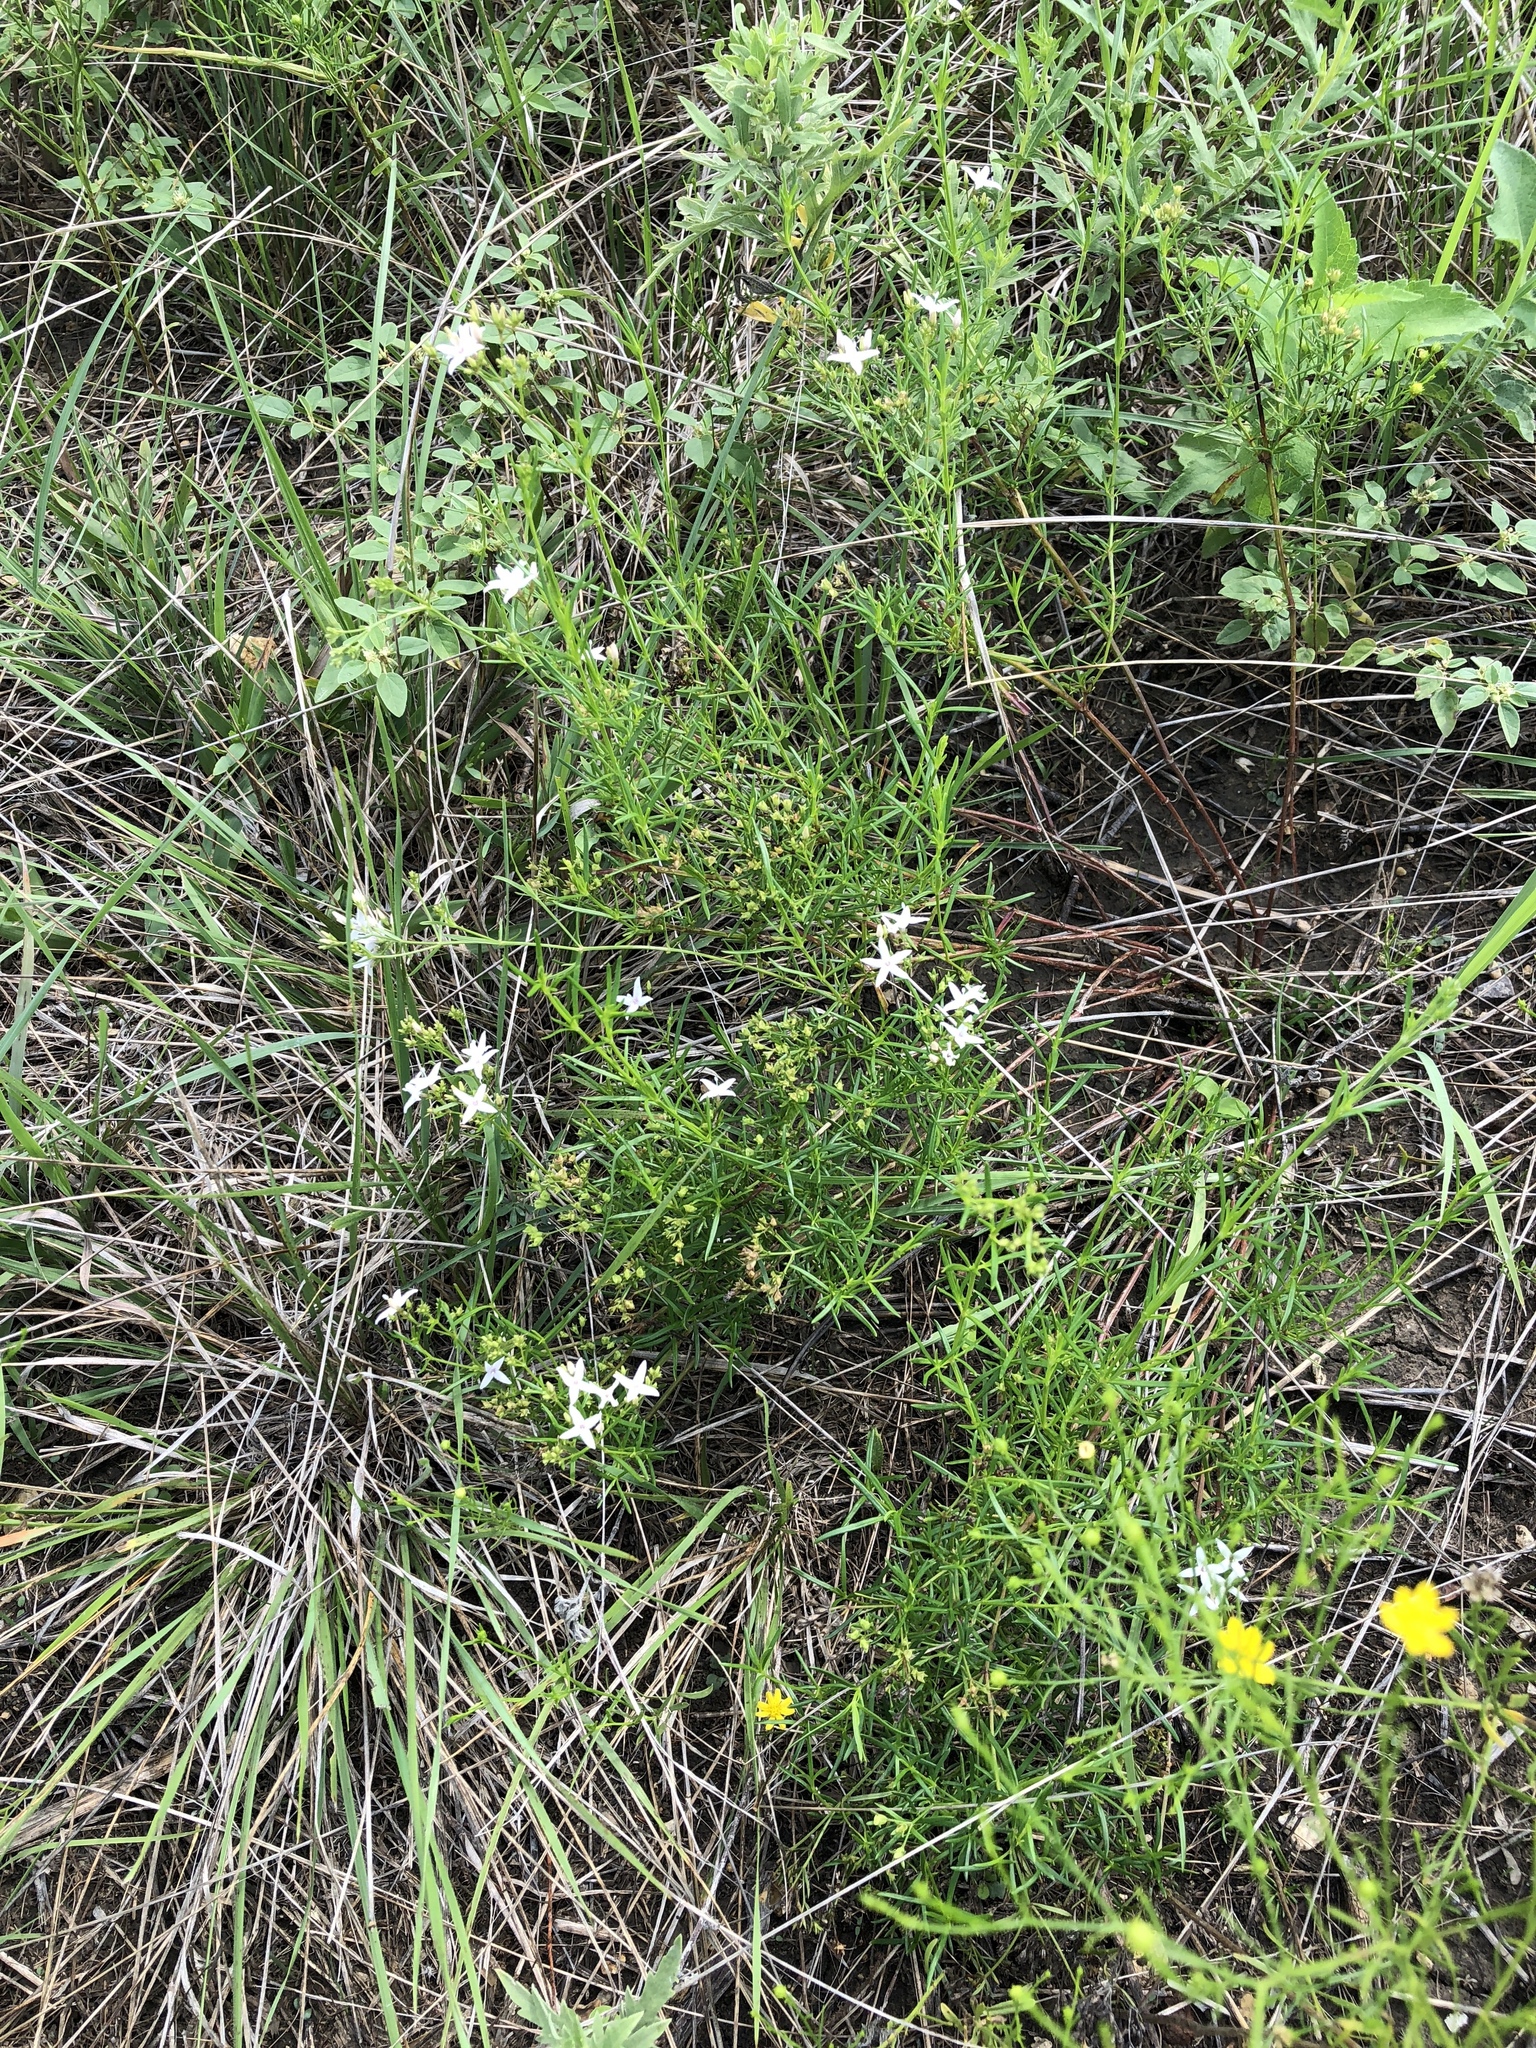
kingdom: Plantae
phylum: Tracheophyta
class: Magnoliopsida
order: Gentianales
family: Rubiaceae
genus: Stenaria
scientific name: Stenaria nigricans
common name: Diamondflowers
